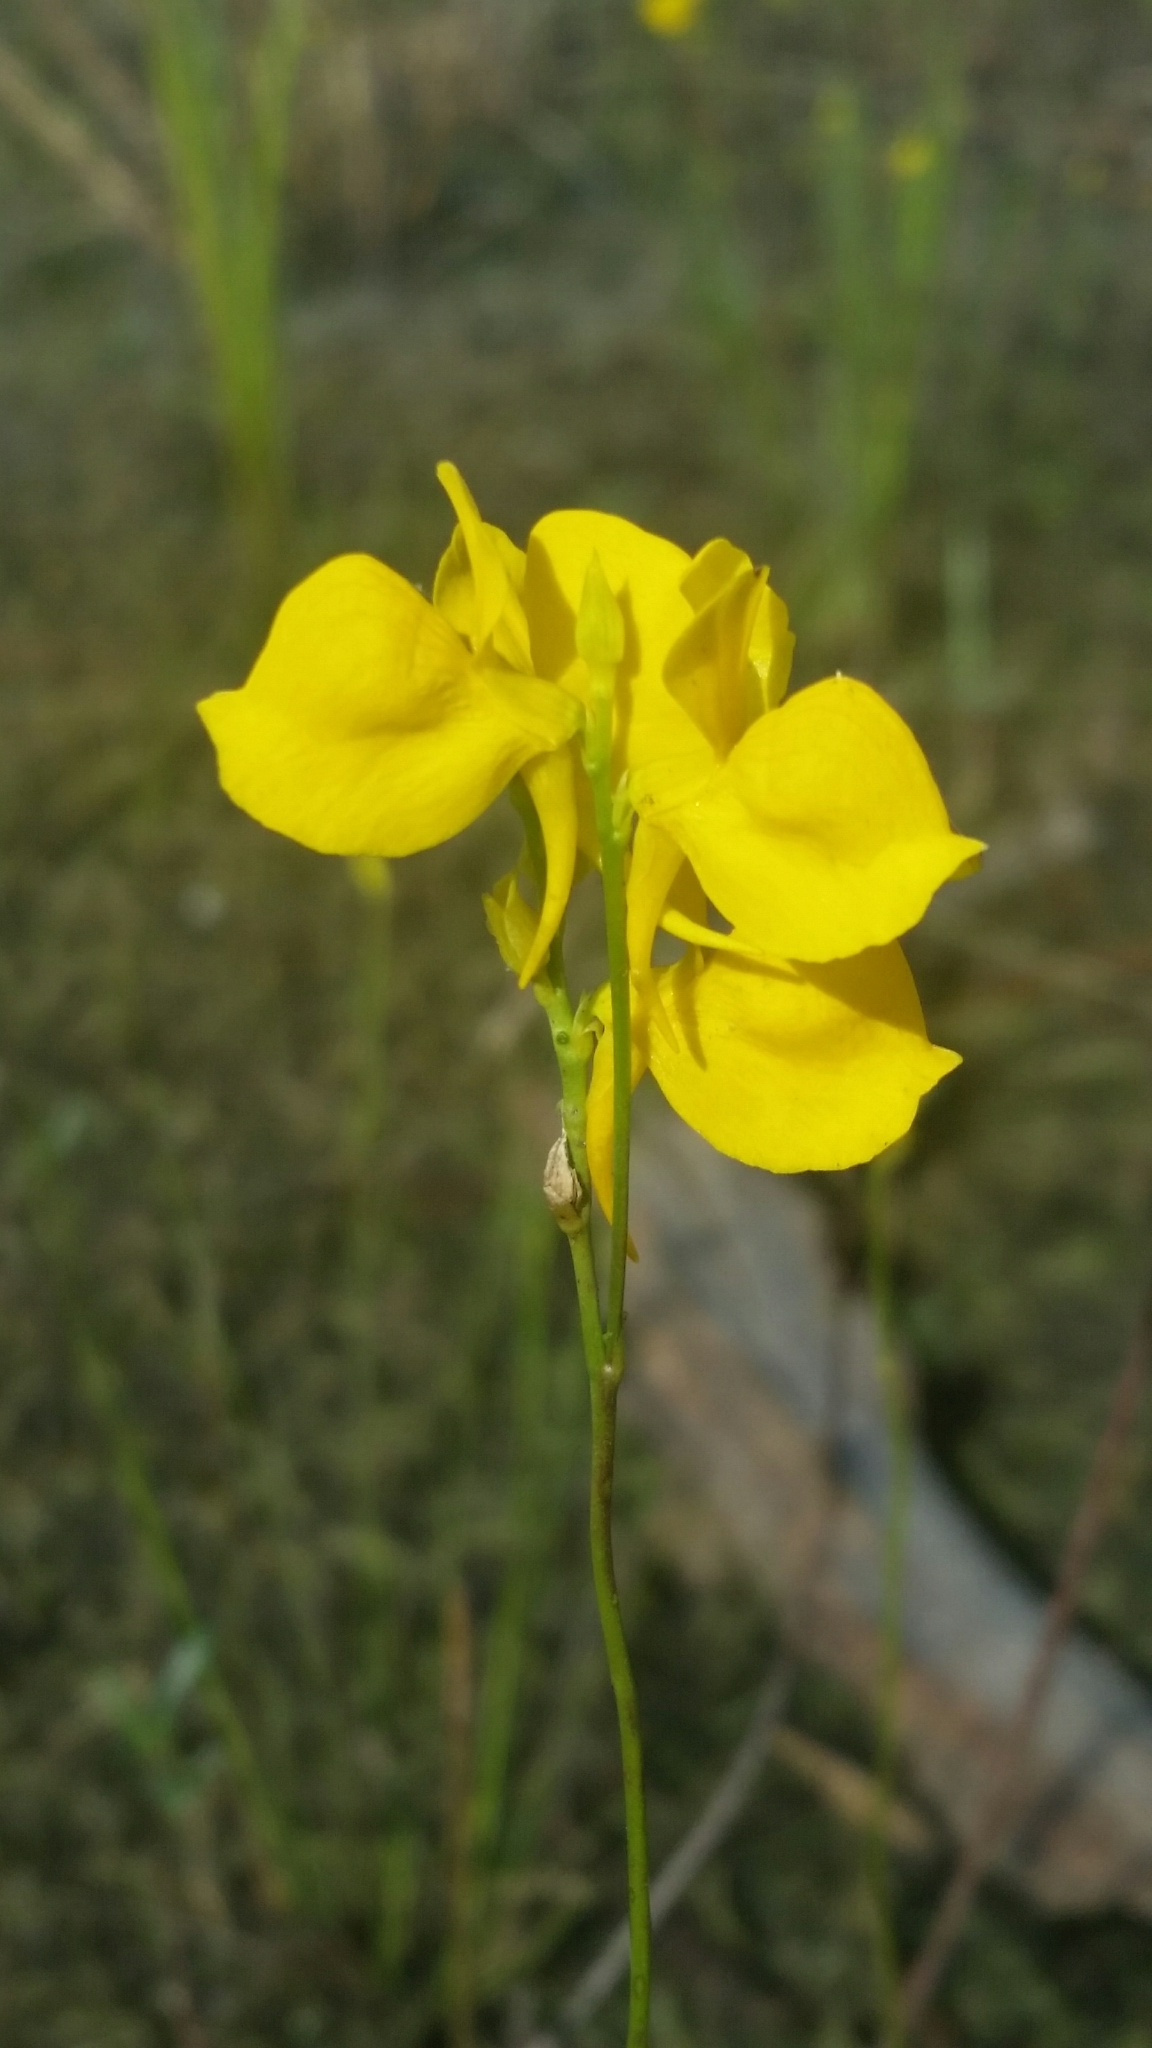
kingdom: Plantae
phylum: Tracheophyta
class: Magnoliopsida
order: Lamiales
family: Lentibulariaceae
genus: Utricularia
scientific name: Utricularia cornuta
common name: Horned bladderwort
